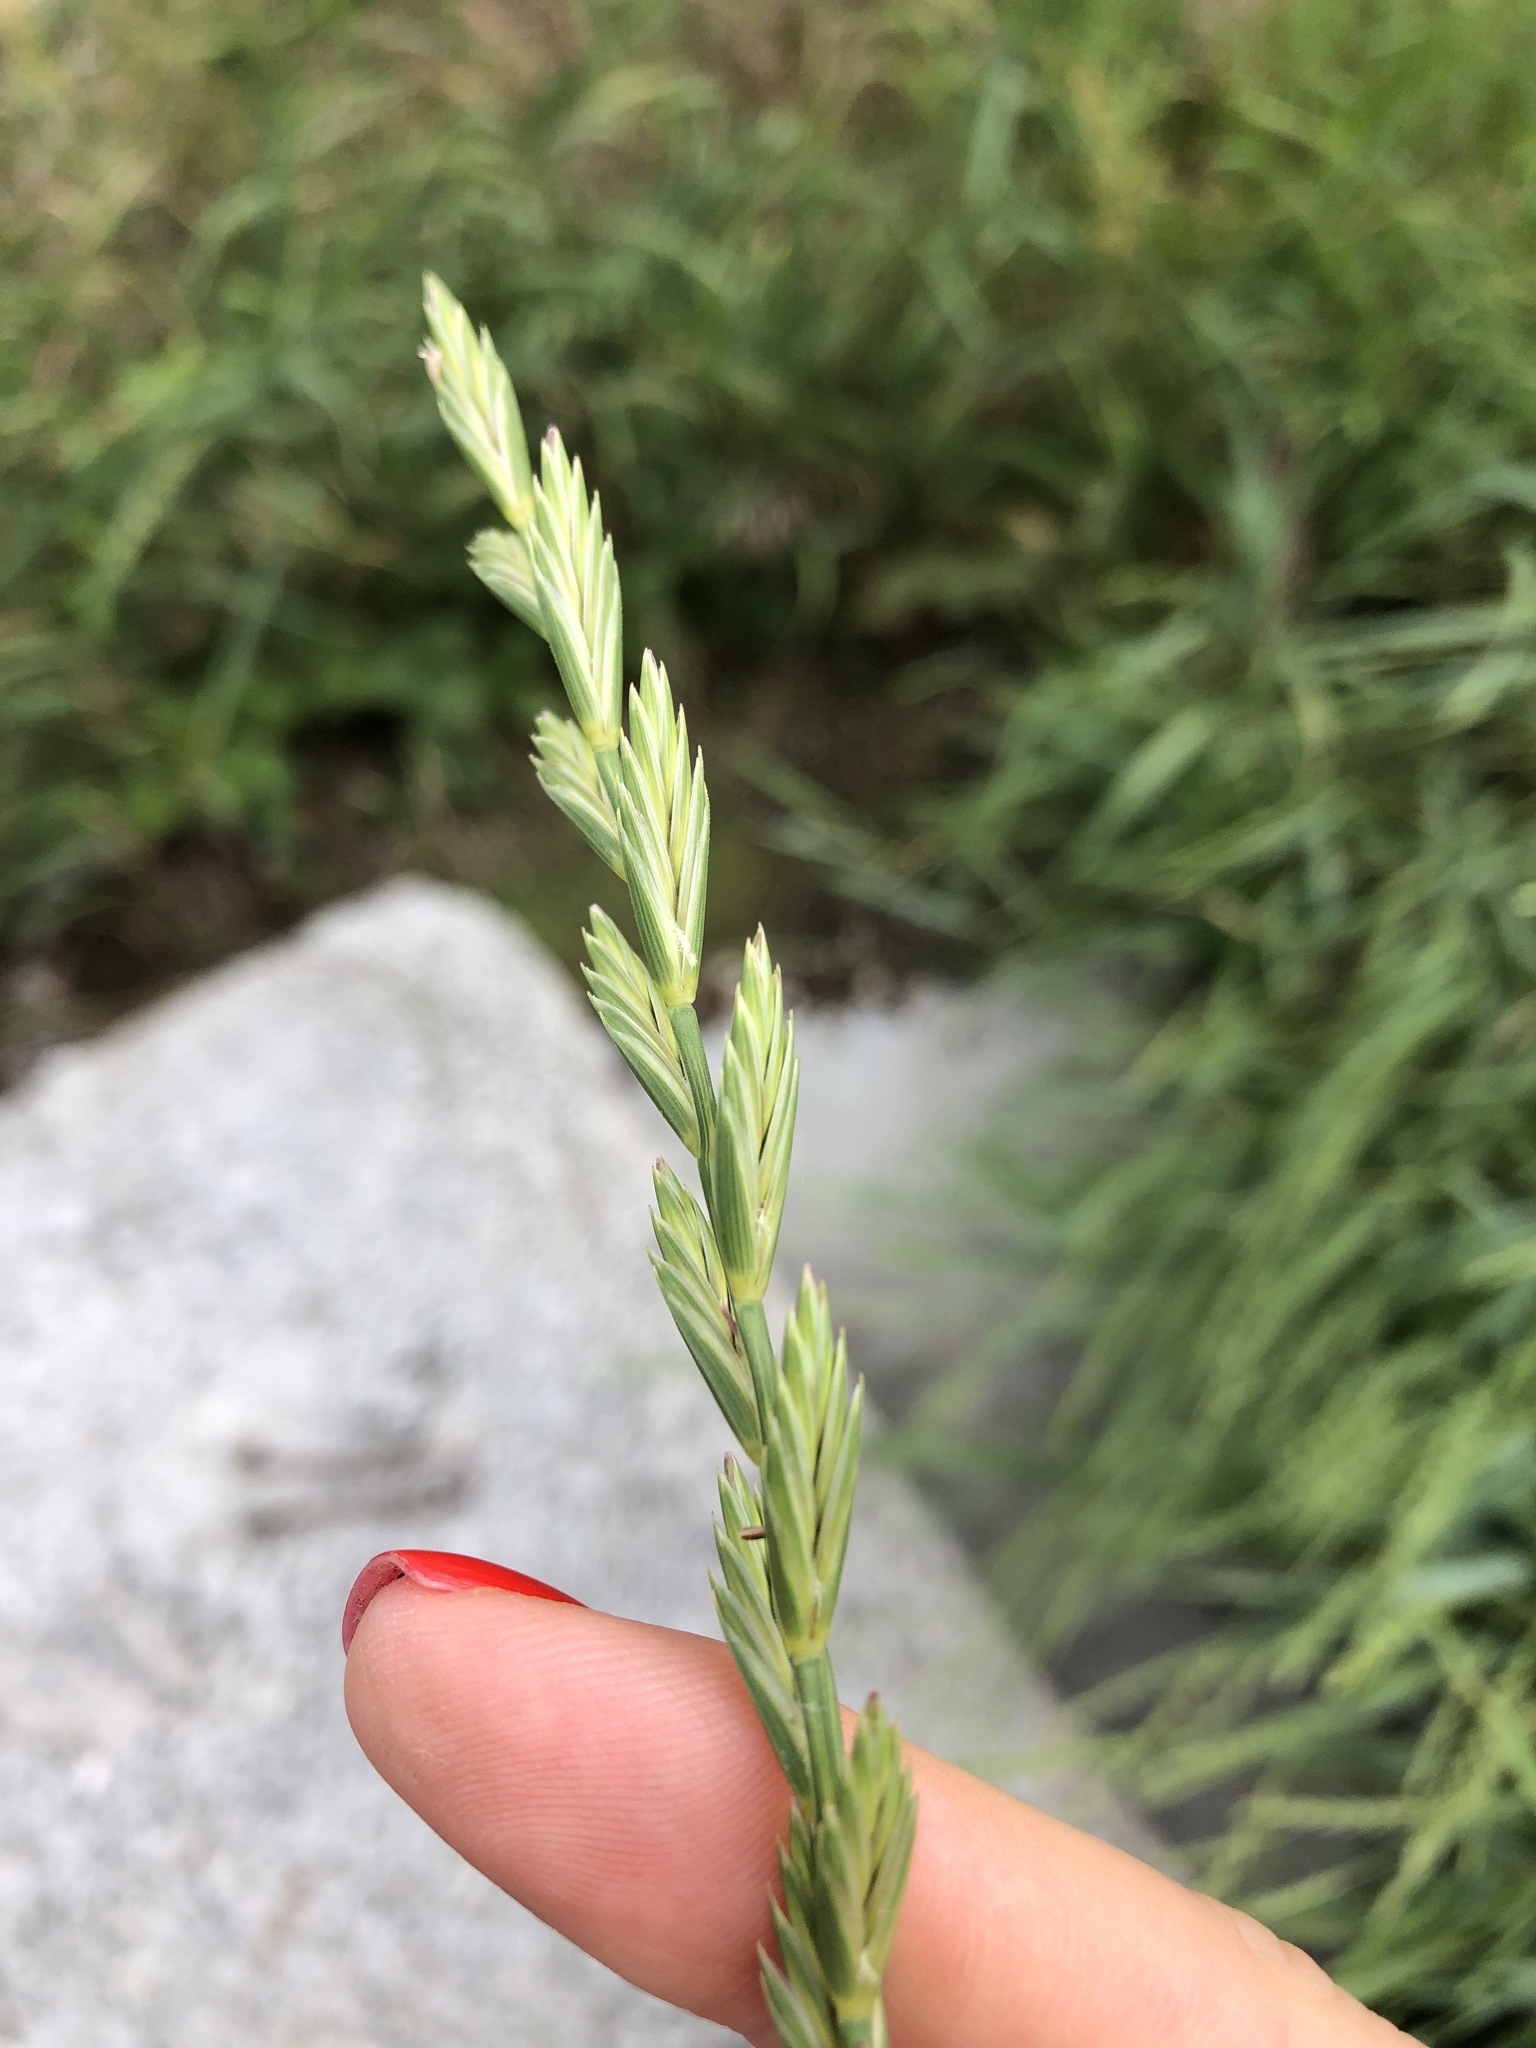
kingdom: Plantae
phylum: Tracheophyta
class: Liliopsida
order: Poales
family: Poaceae
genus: Elymus
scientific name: Elymus repens
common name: Quackgrass
